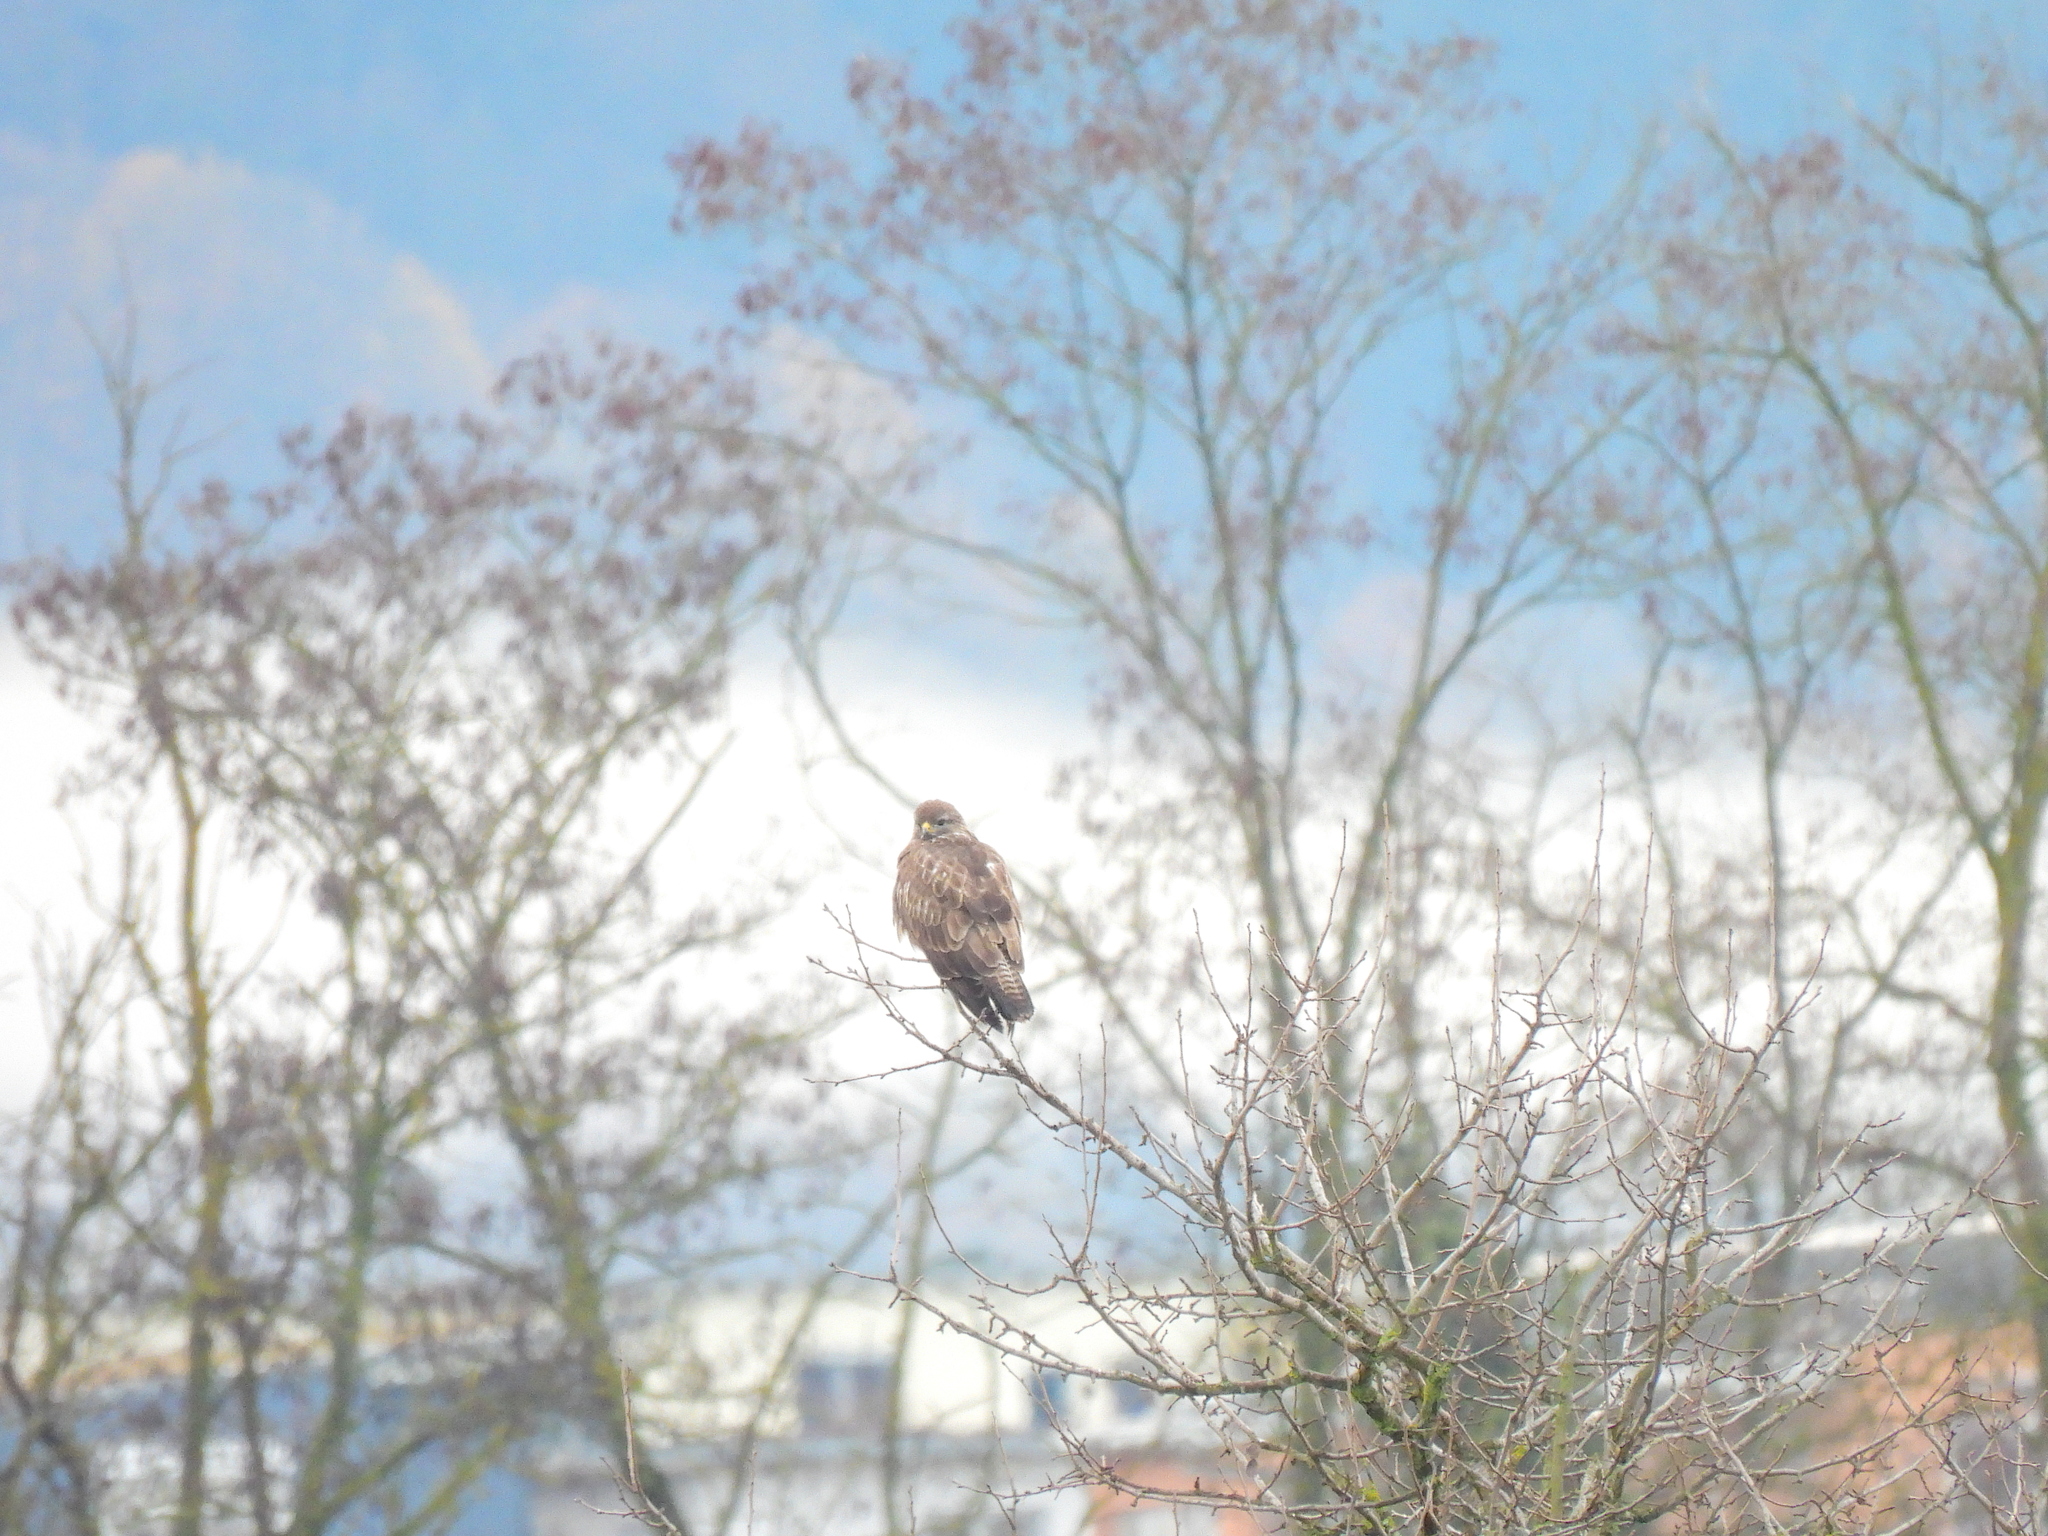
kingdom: Animalia
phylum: Chordata
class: Aves
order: Accipitriformes
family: Accipitridae
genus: Buteo
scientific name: Buteo buteo
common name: Common buzzard
